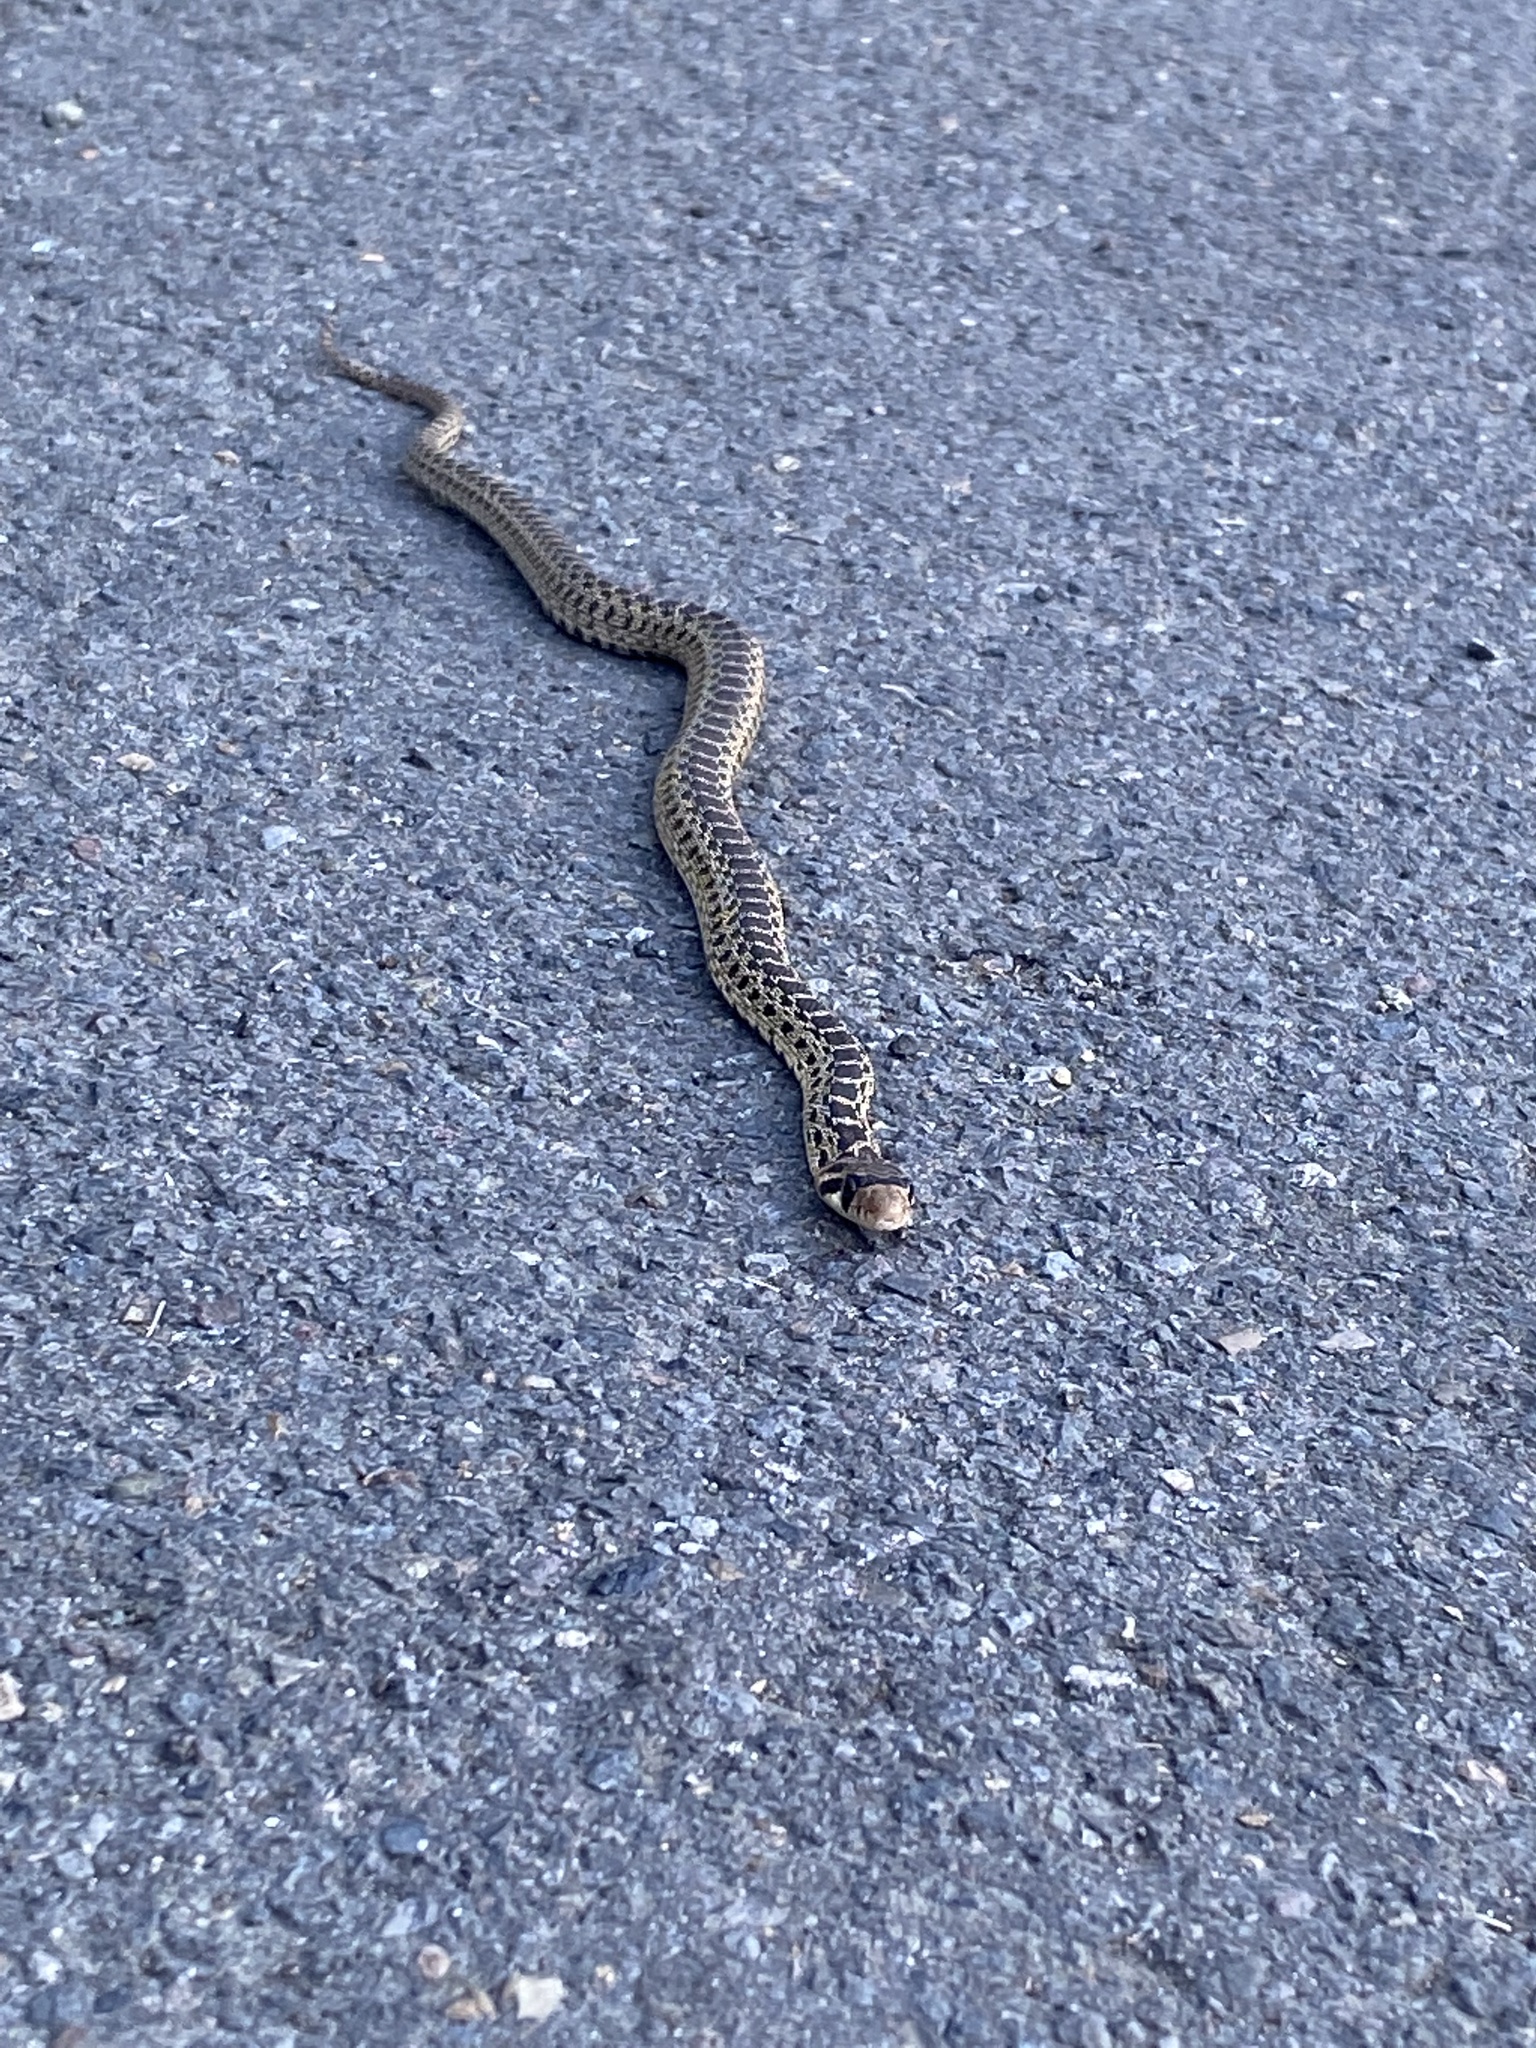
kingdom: Animalia
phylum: Chordata
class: Squamata
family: Colubridae
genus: Pituophis
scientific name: Pituophis catenifer
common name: Gopher snake
